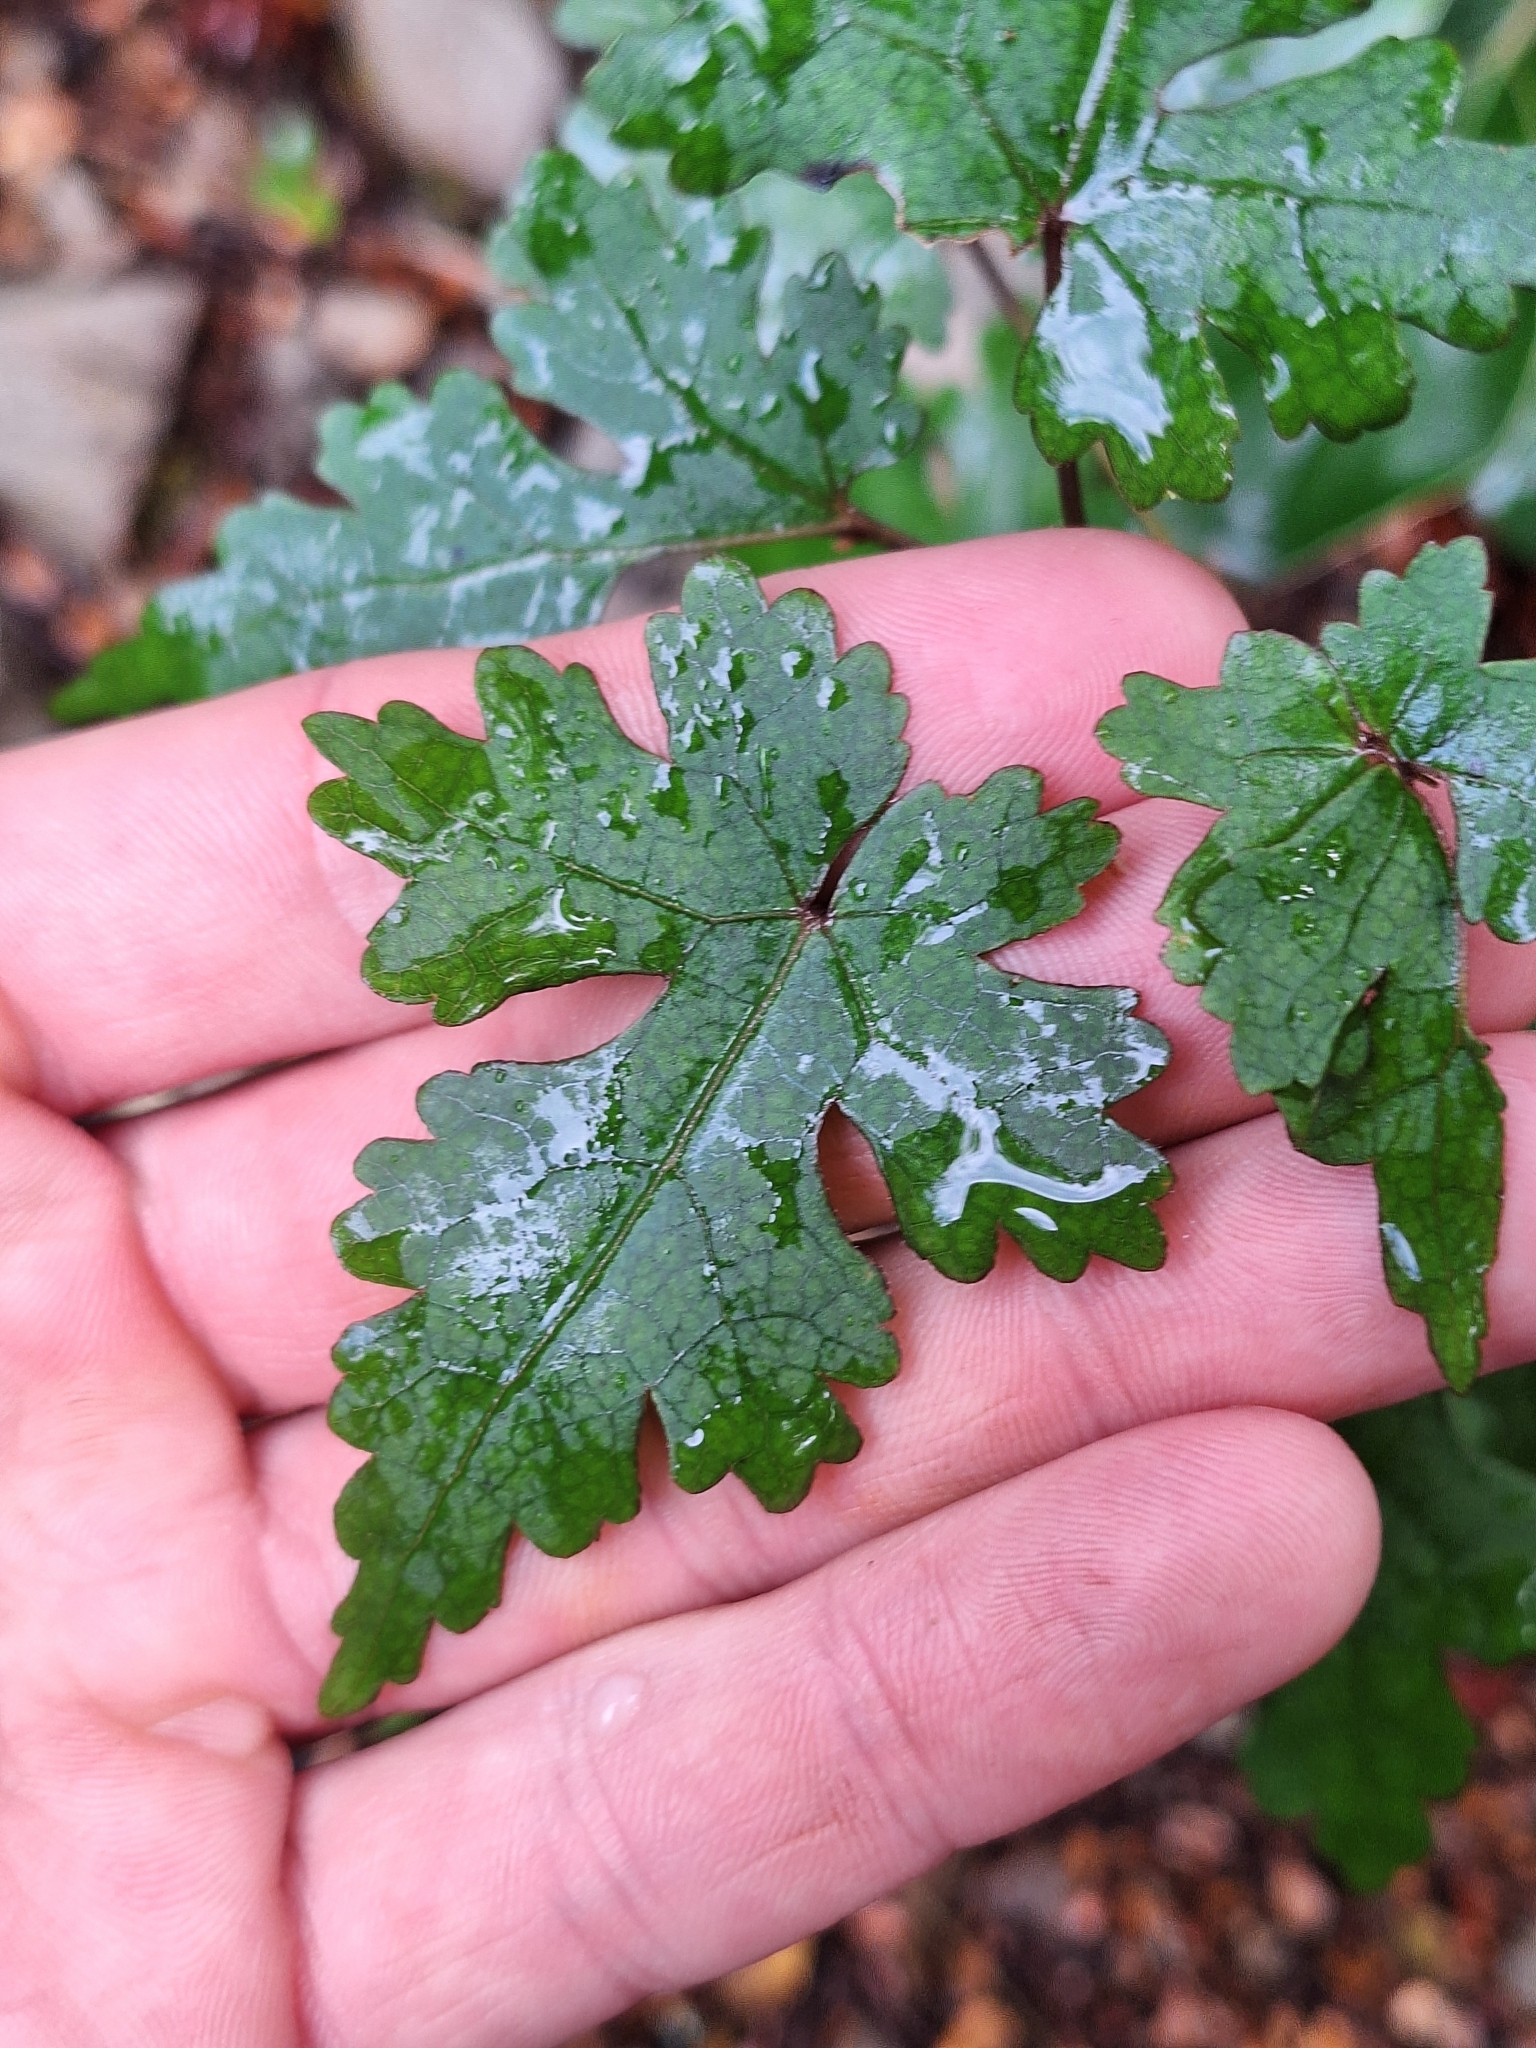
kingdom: Plantae
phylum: Tracheophyta
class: Magnoliopsida
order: Malvales
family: Malvaceae
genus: Hoheria
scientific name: Hoheria glabrata
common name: Mountain-ribbon
